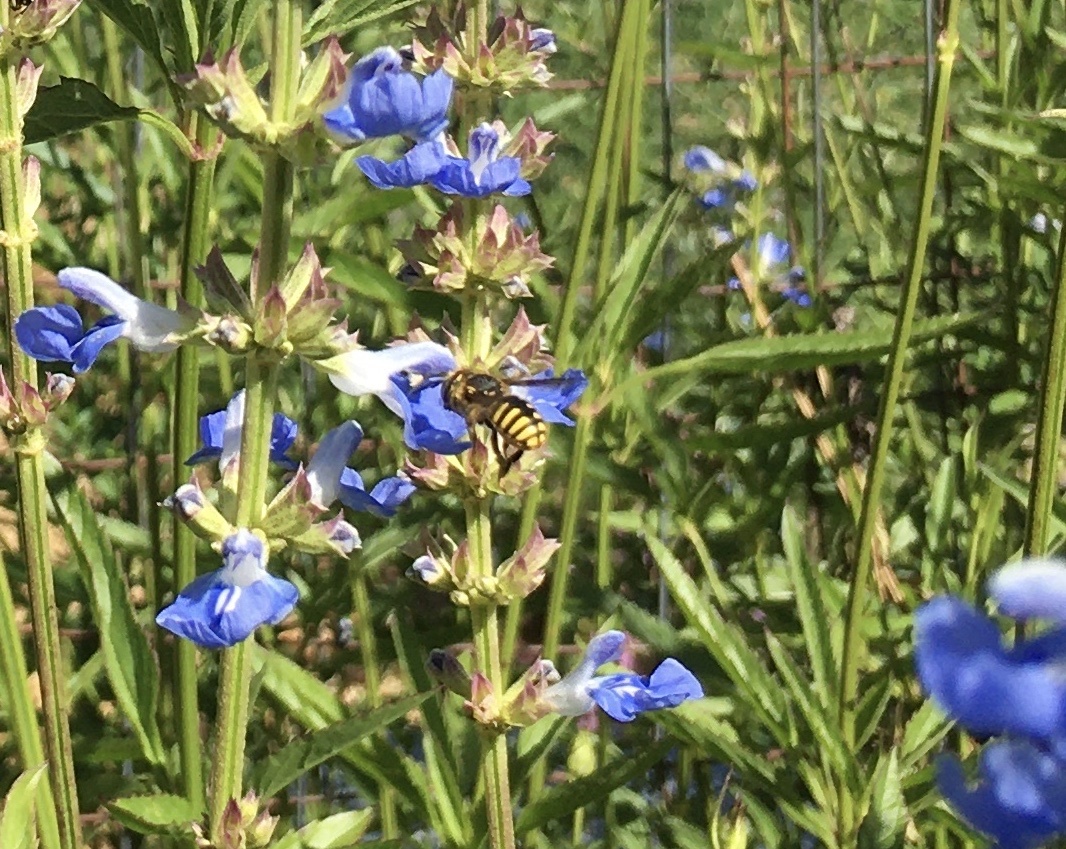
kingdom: Animalia
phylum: Arthropoda
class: Insecta
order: Hymenoptera
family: Megachilidae
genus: Anthidium
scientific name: Anthidium manicatum
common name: Wool carder bee
